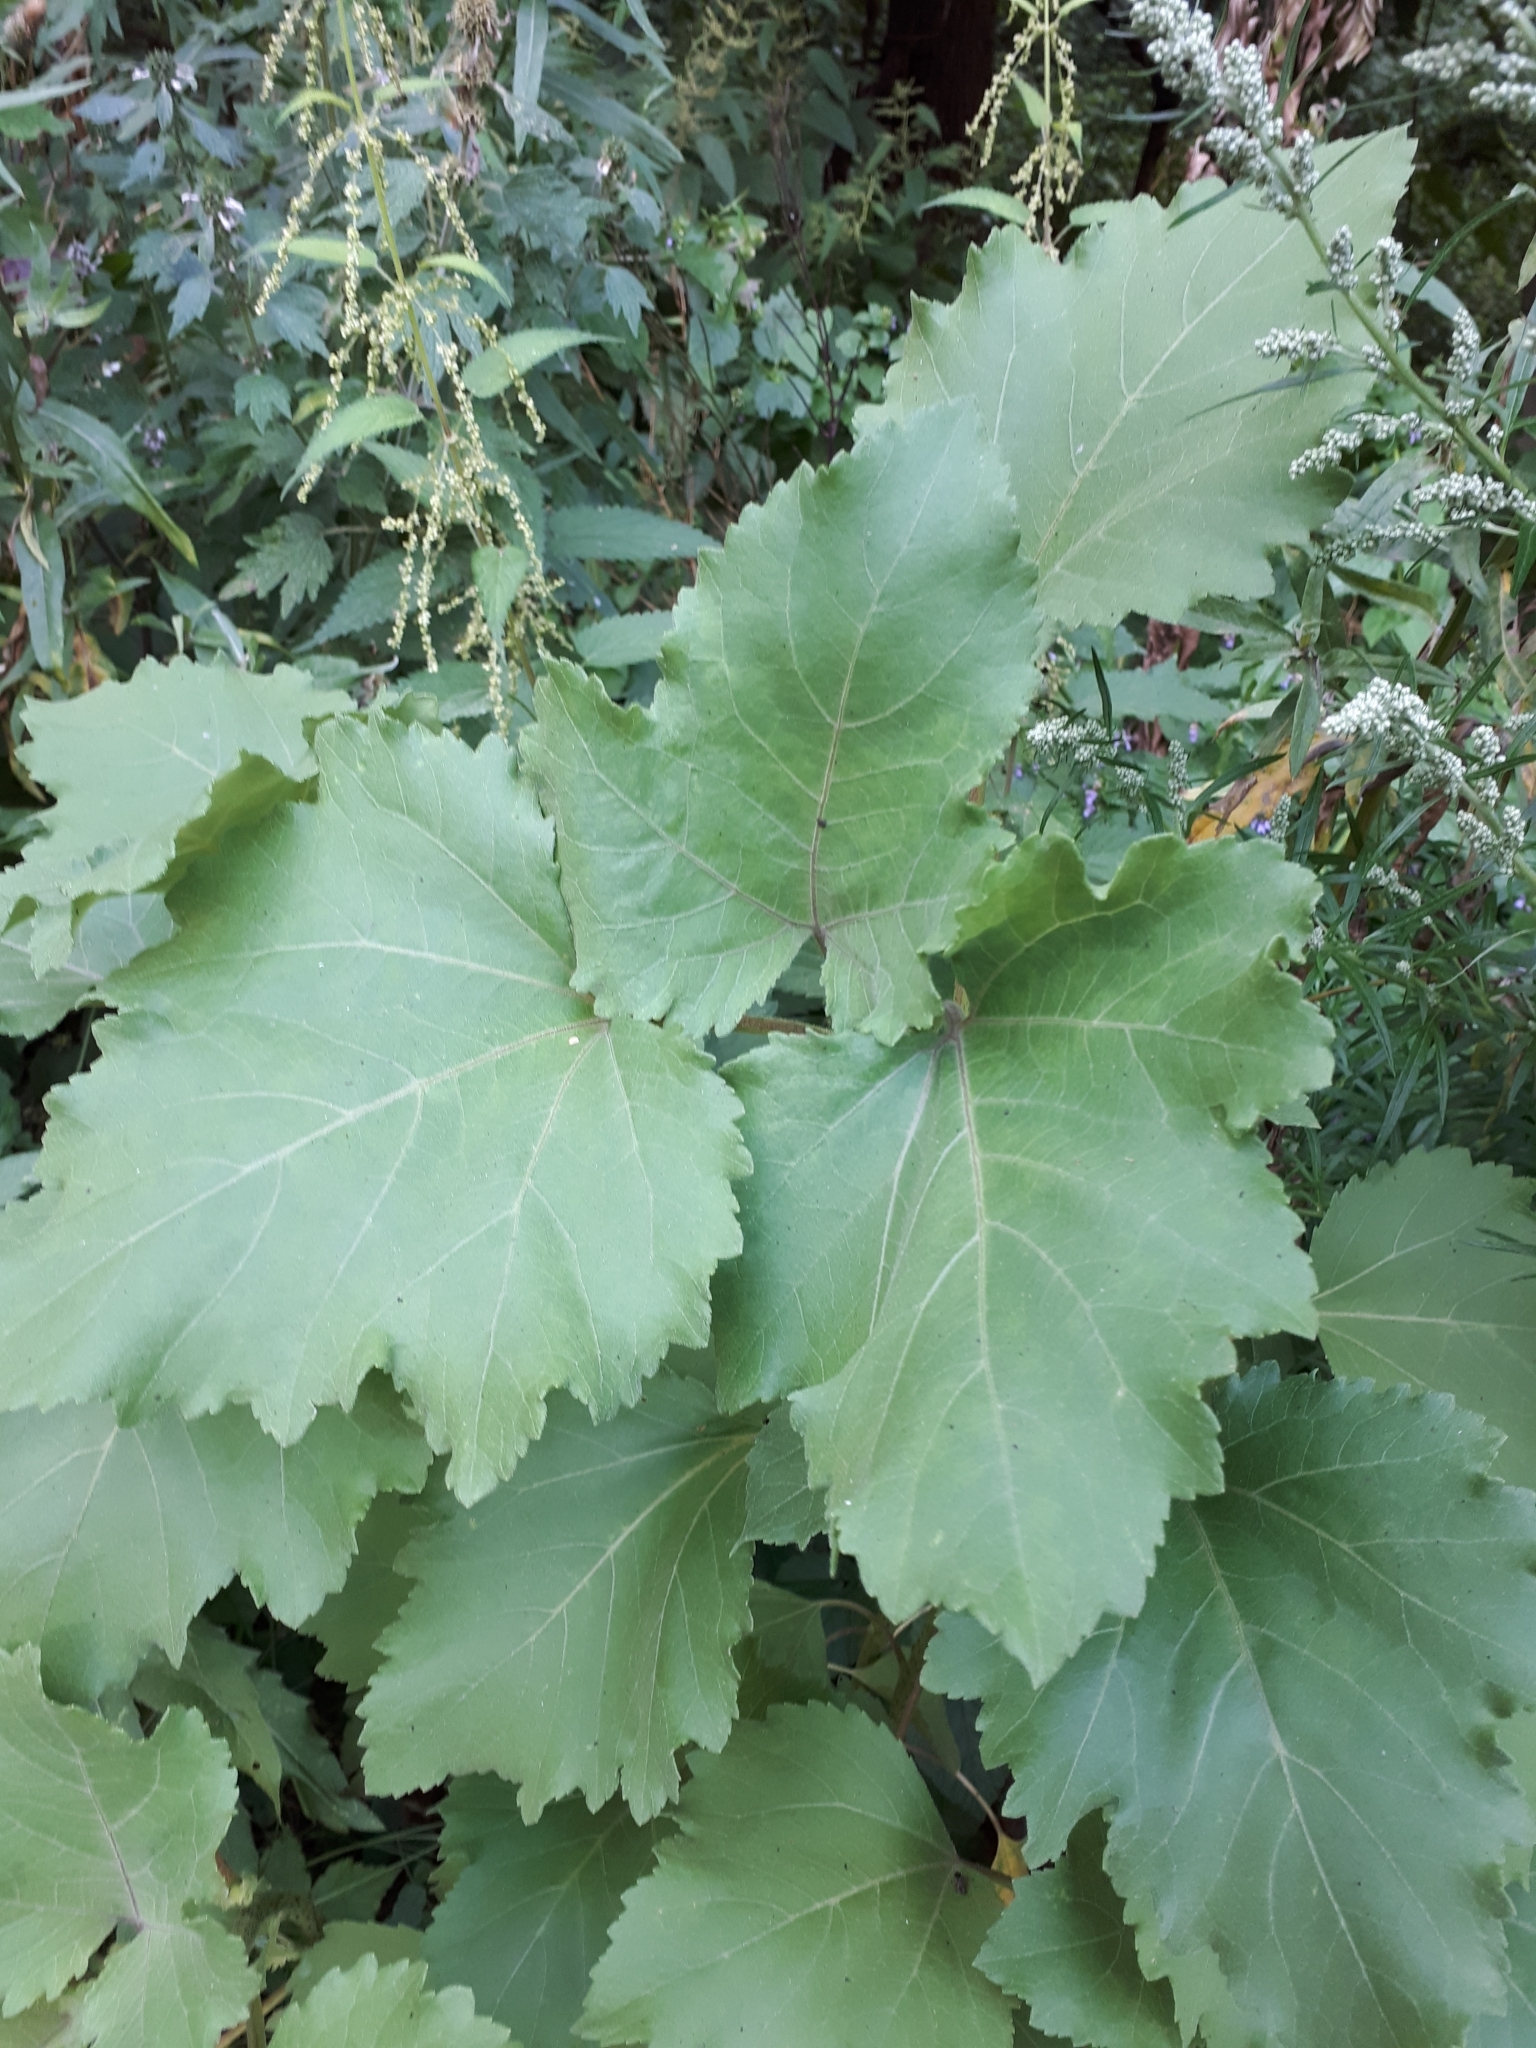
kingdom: Plantae
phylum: Tracheophyta
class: Magnoliopsida
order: Asterales
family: Asteraceae
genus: Xanthium
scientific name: Xanthium orientale
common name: Californian burr
